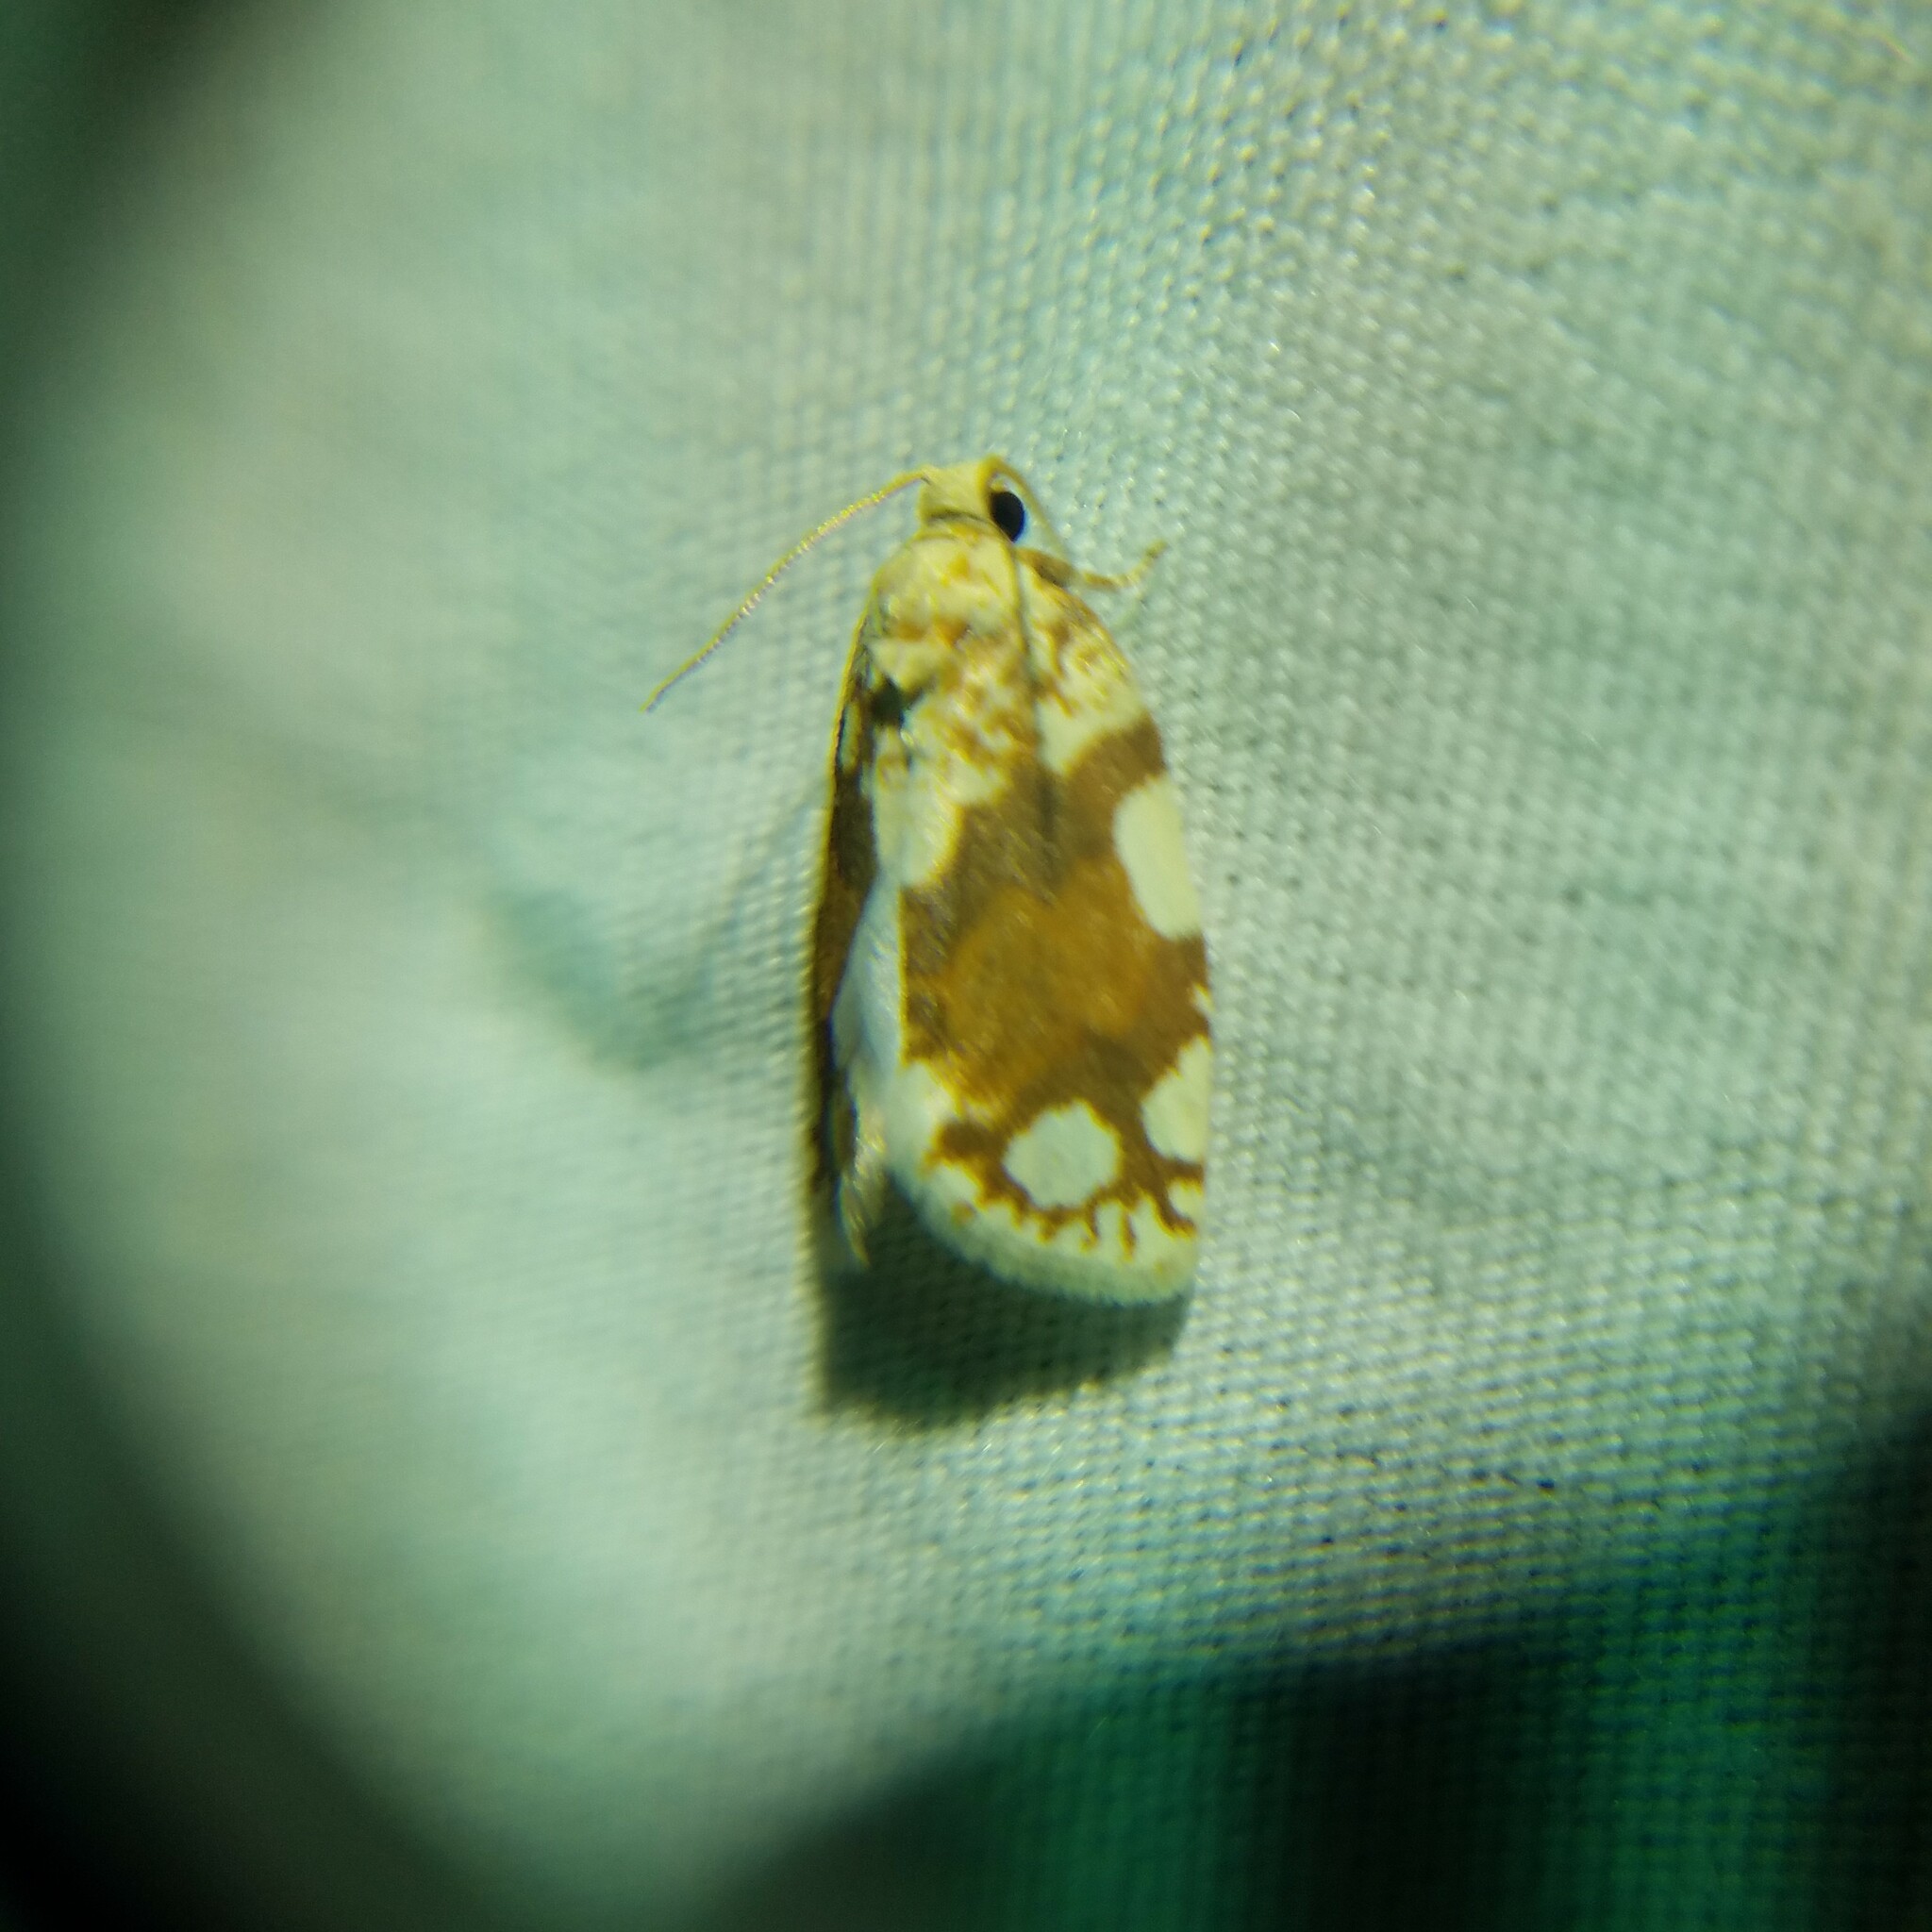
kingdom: Animalia
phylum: Arthropoda
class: Insecta
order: Lepidoptera
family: Tortricidae
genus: Argyrotaenia
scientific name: Argyrotaenia alisellana
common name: White-spotted leafroller moth
